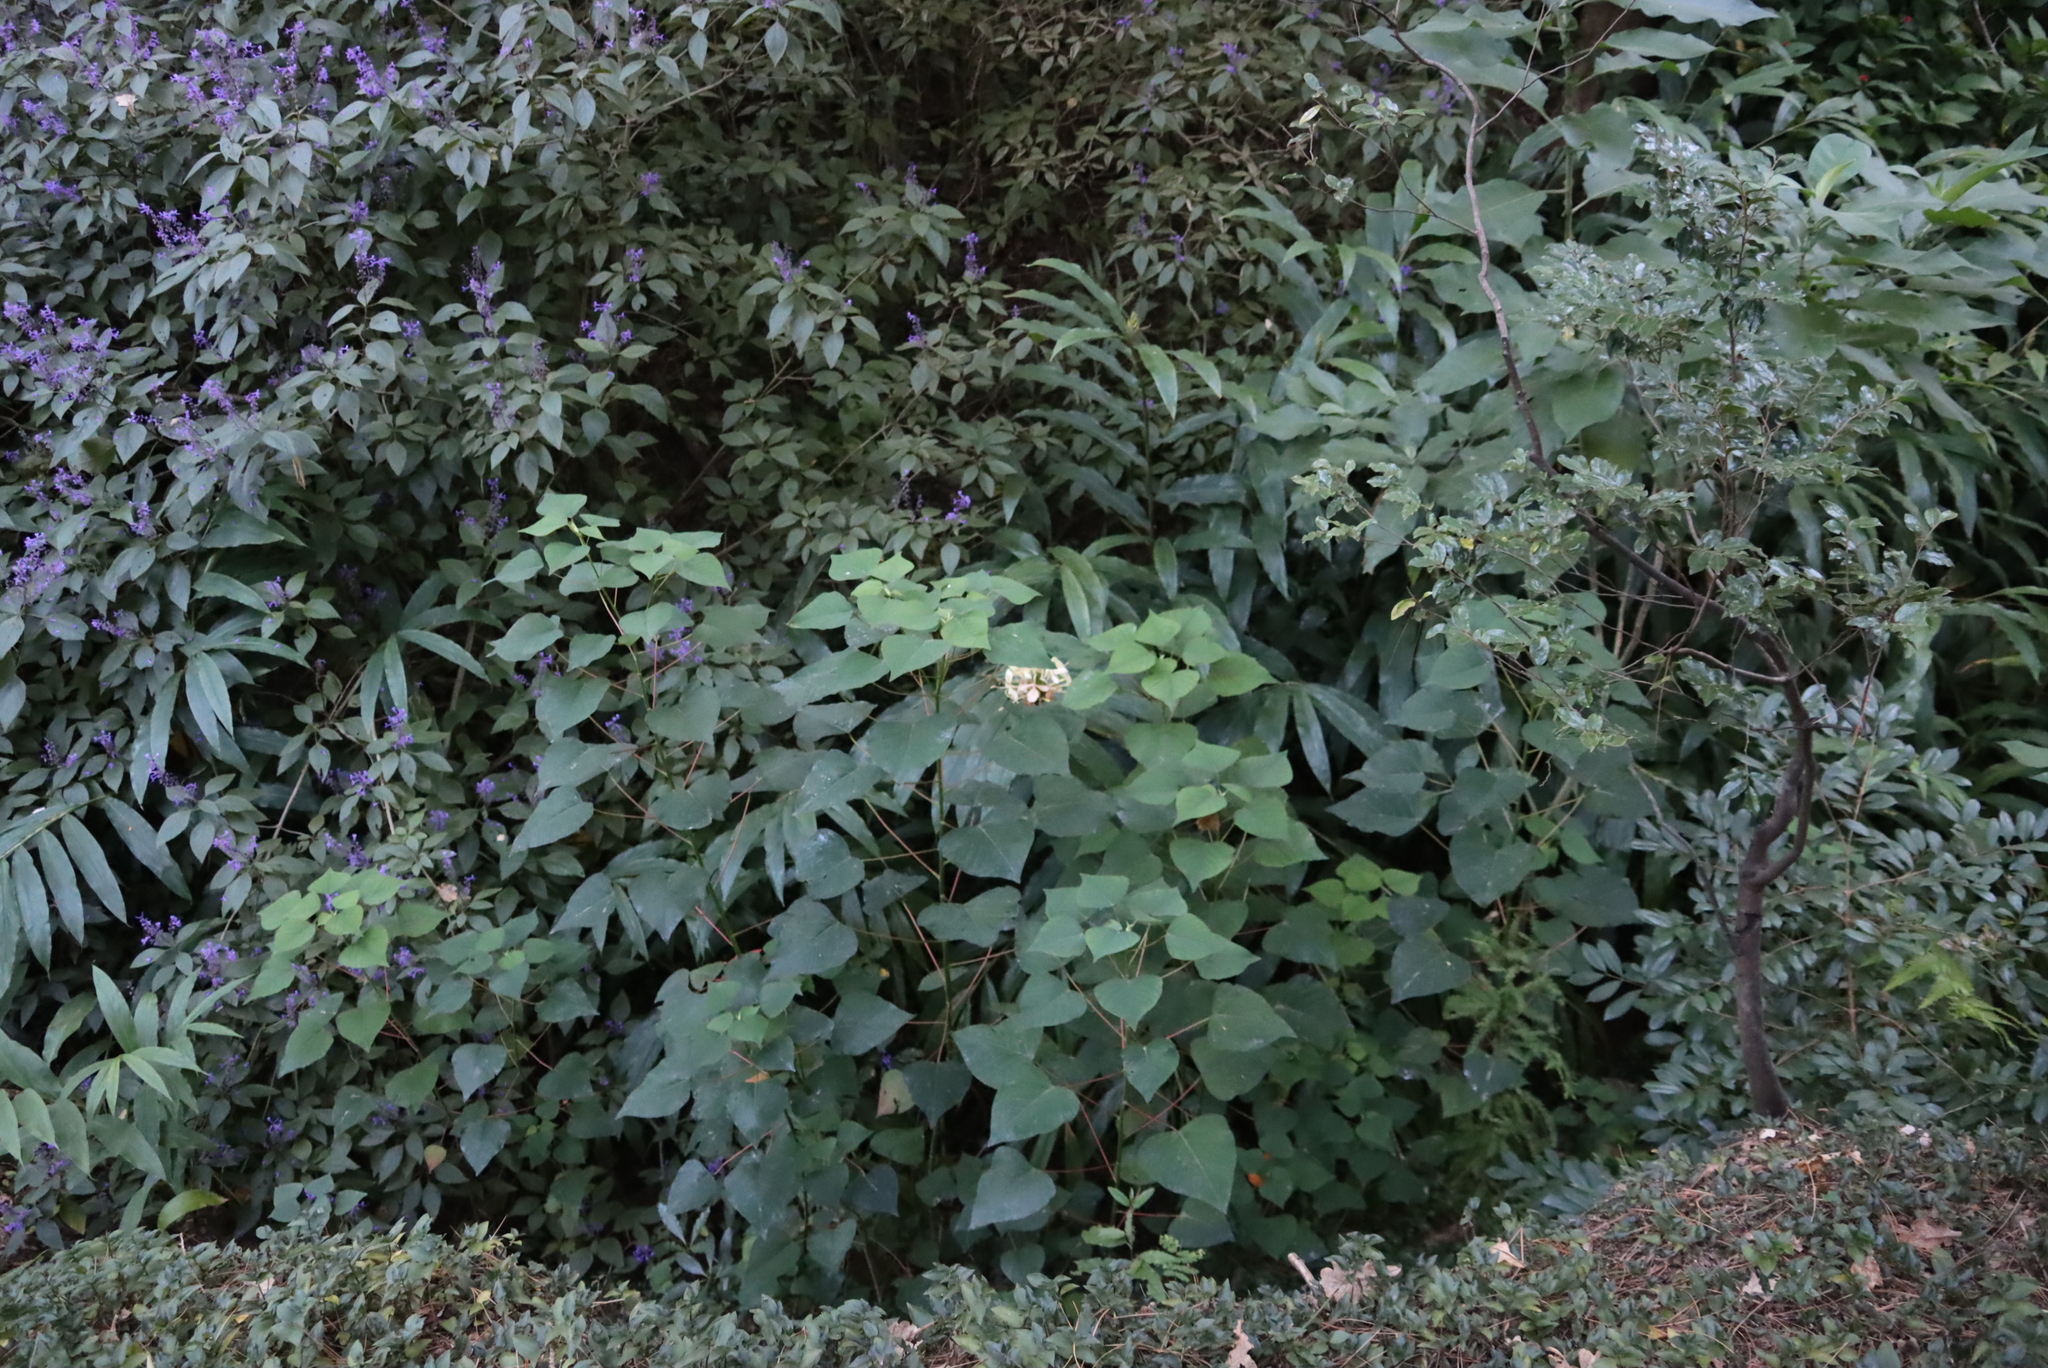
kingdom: Plantae
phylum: Tracheophyta
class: Magnoliopsida
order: Malpighiales
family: Euphorbiaceae
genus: Homalanthus
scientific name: Homalanthus populifolius
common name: Queensland poplar
